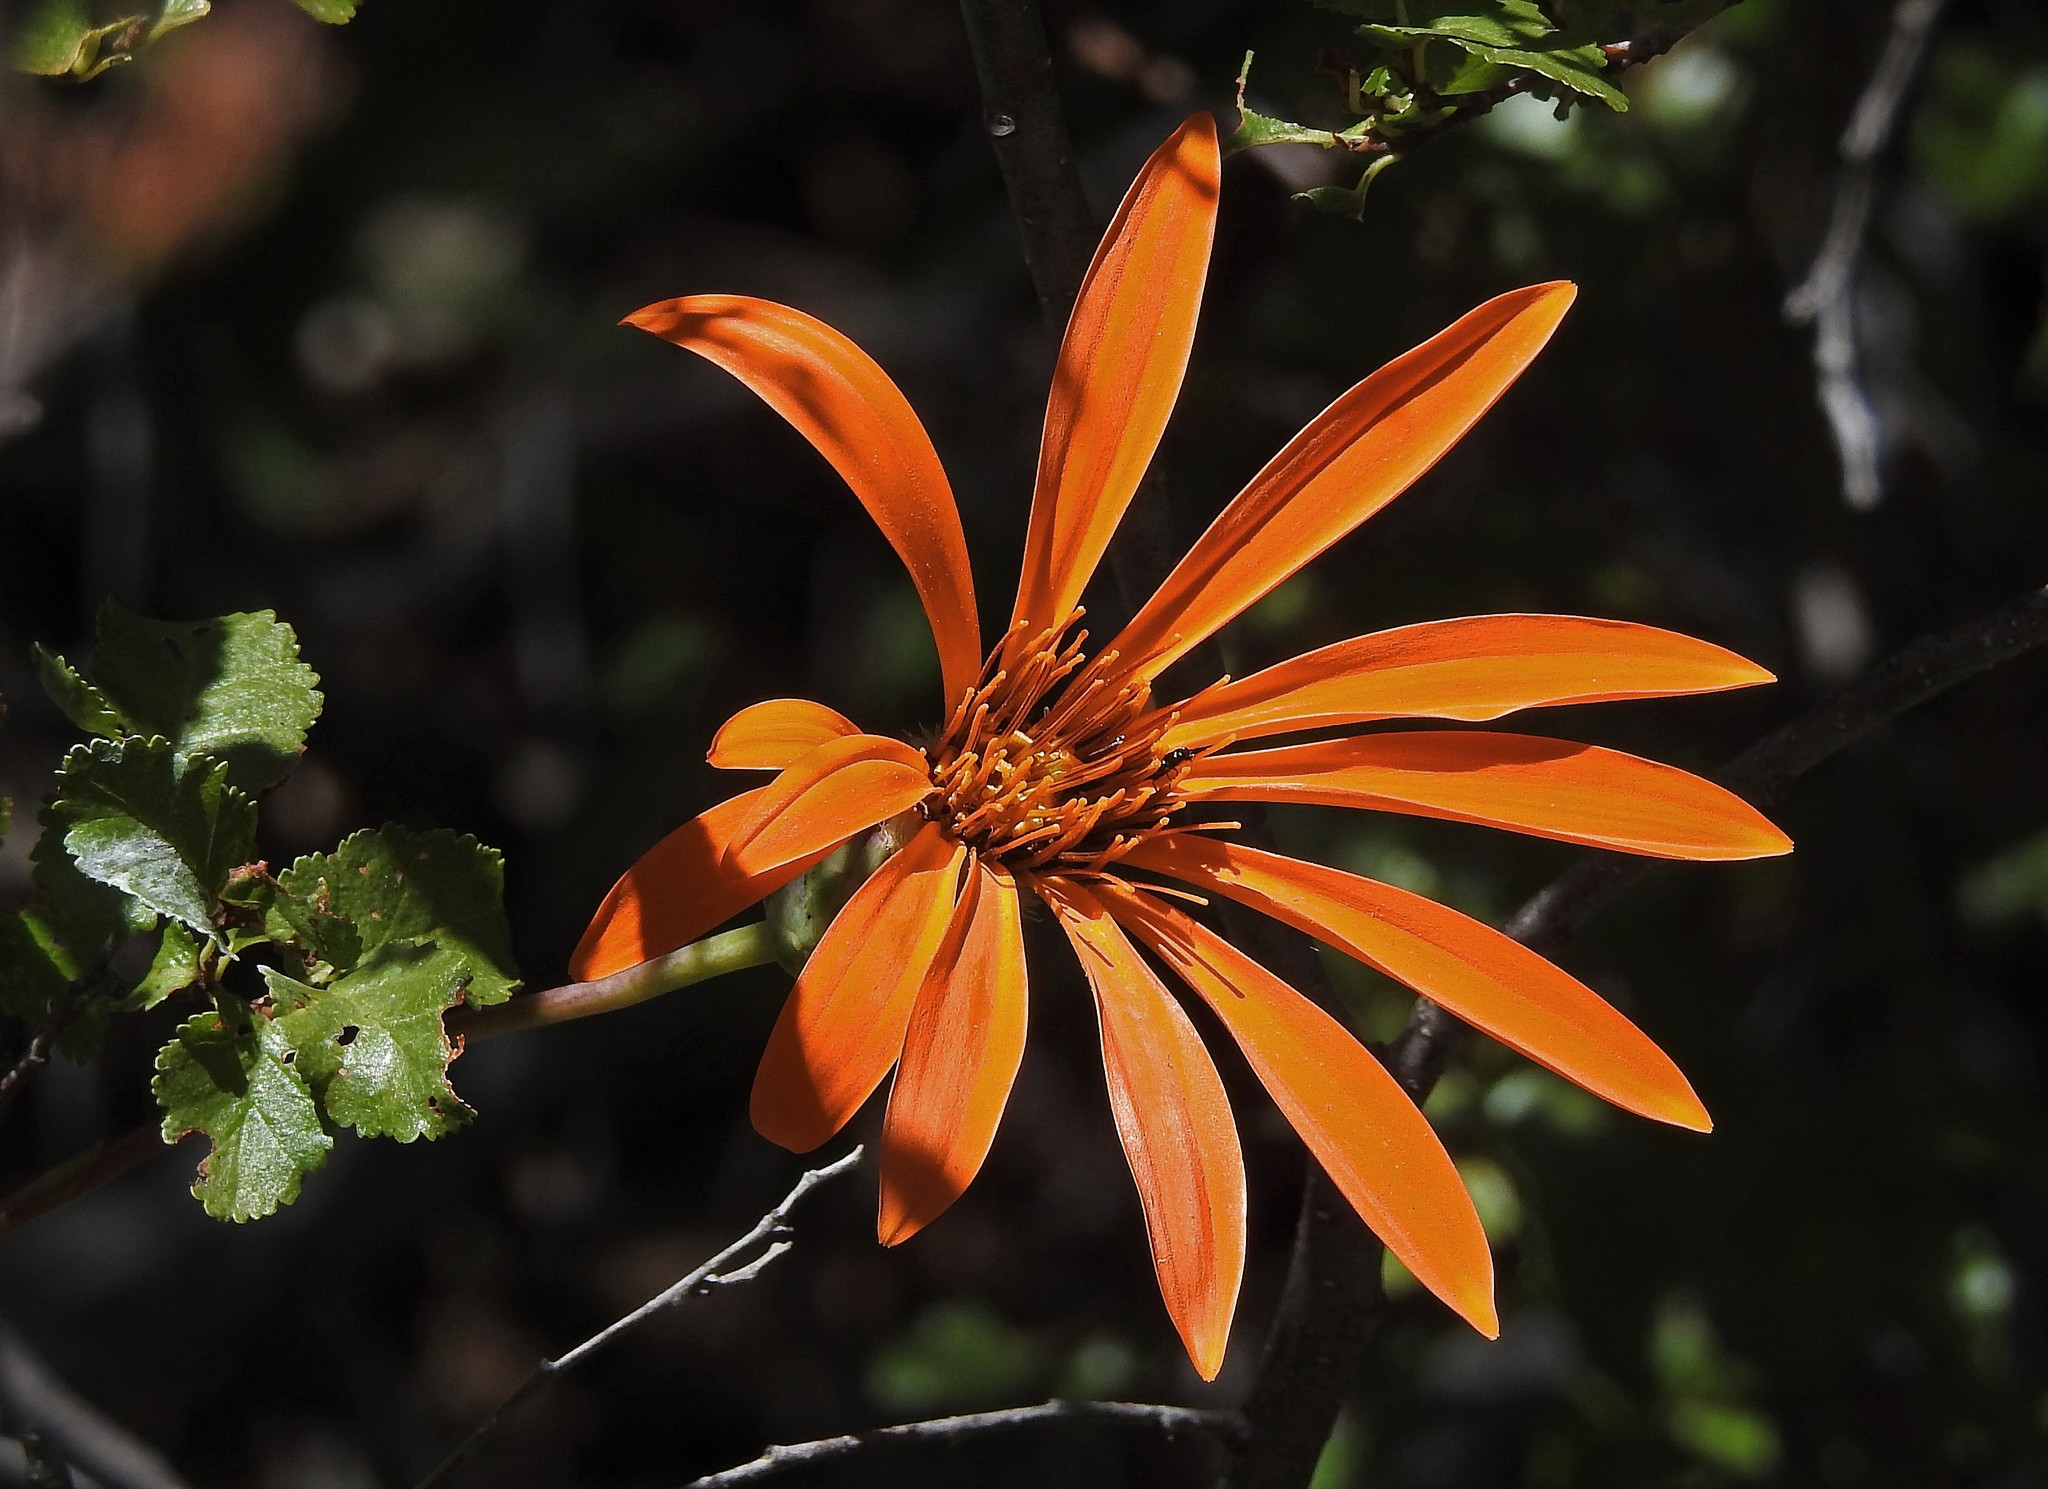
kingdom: Plantae
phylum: Tracheophyta
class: Magnoliopsida
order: Asterales
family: Asteraceae
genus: Mutisia
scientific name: Mutisia decurrens
